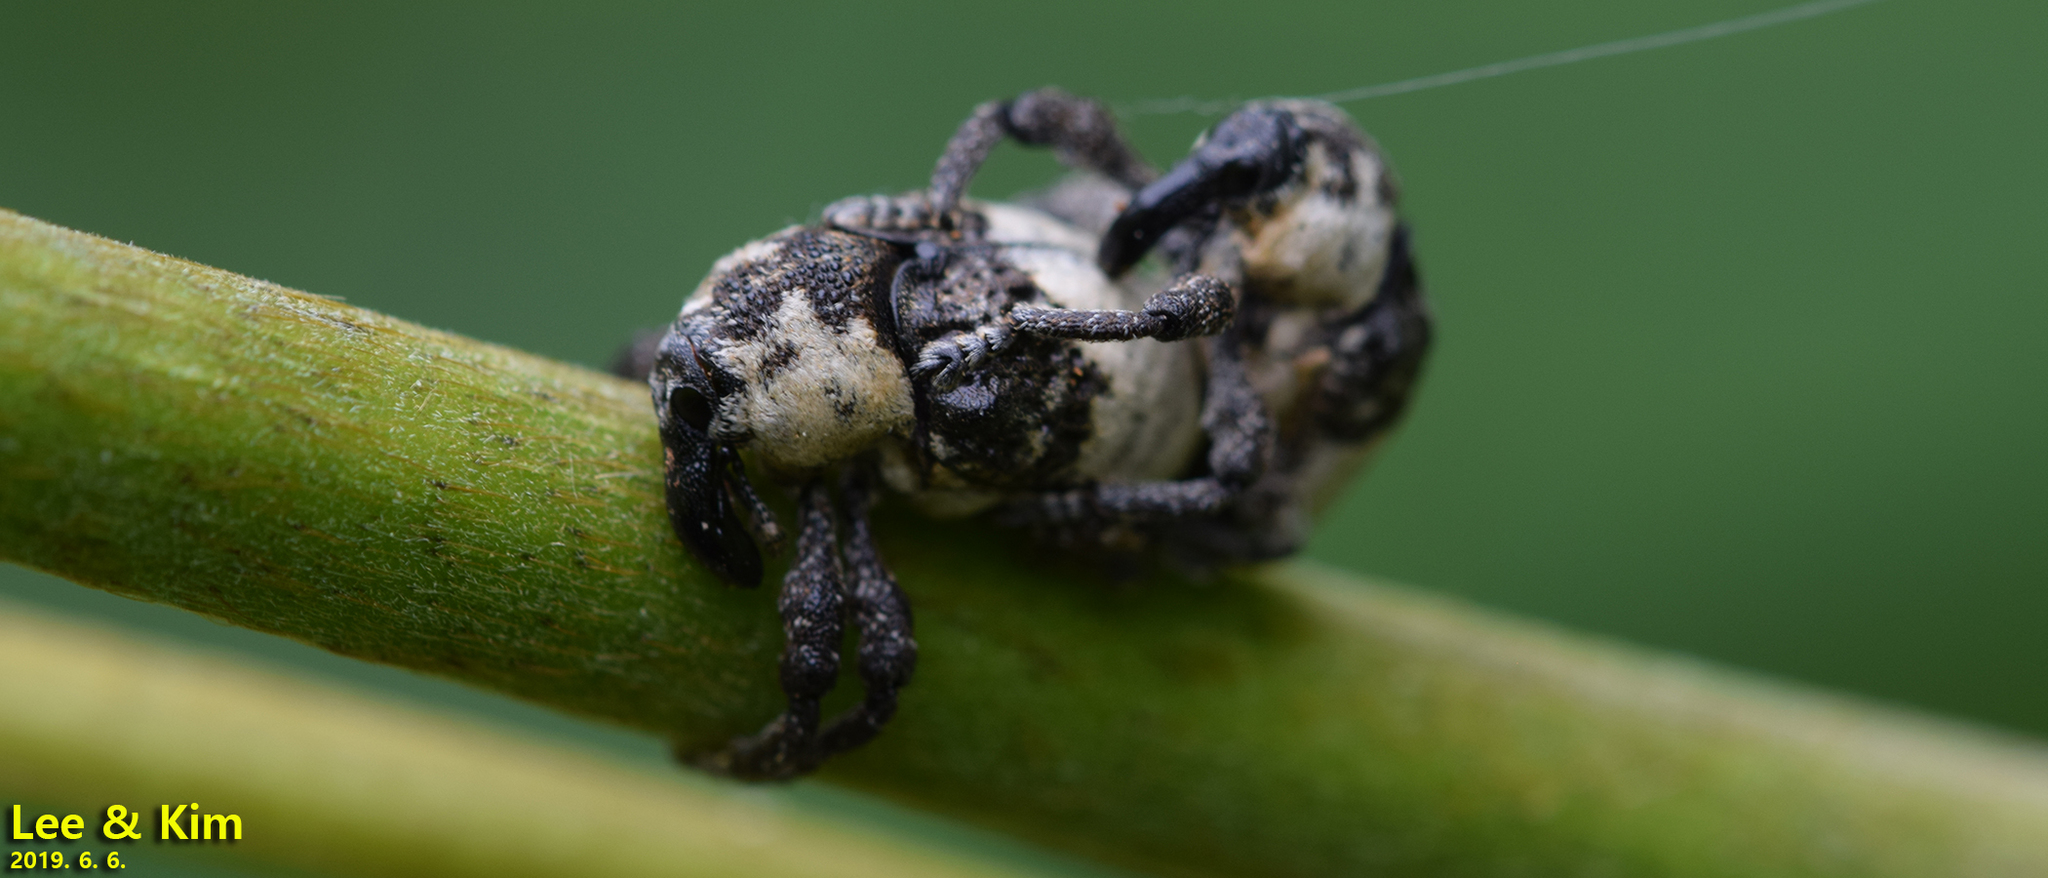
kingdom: Animalia
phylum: Arthropoda
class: Insecta
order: Coleoptera
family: Curculionidae
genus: Alcides
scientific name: Alcides trifidus
